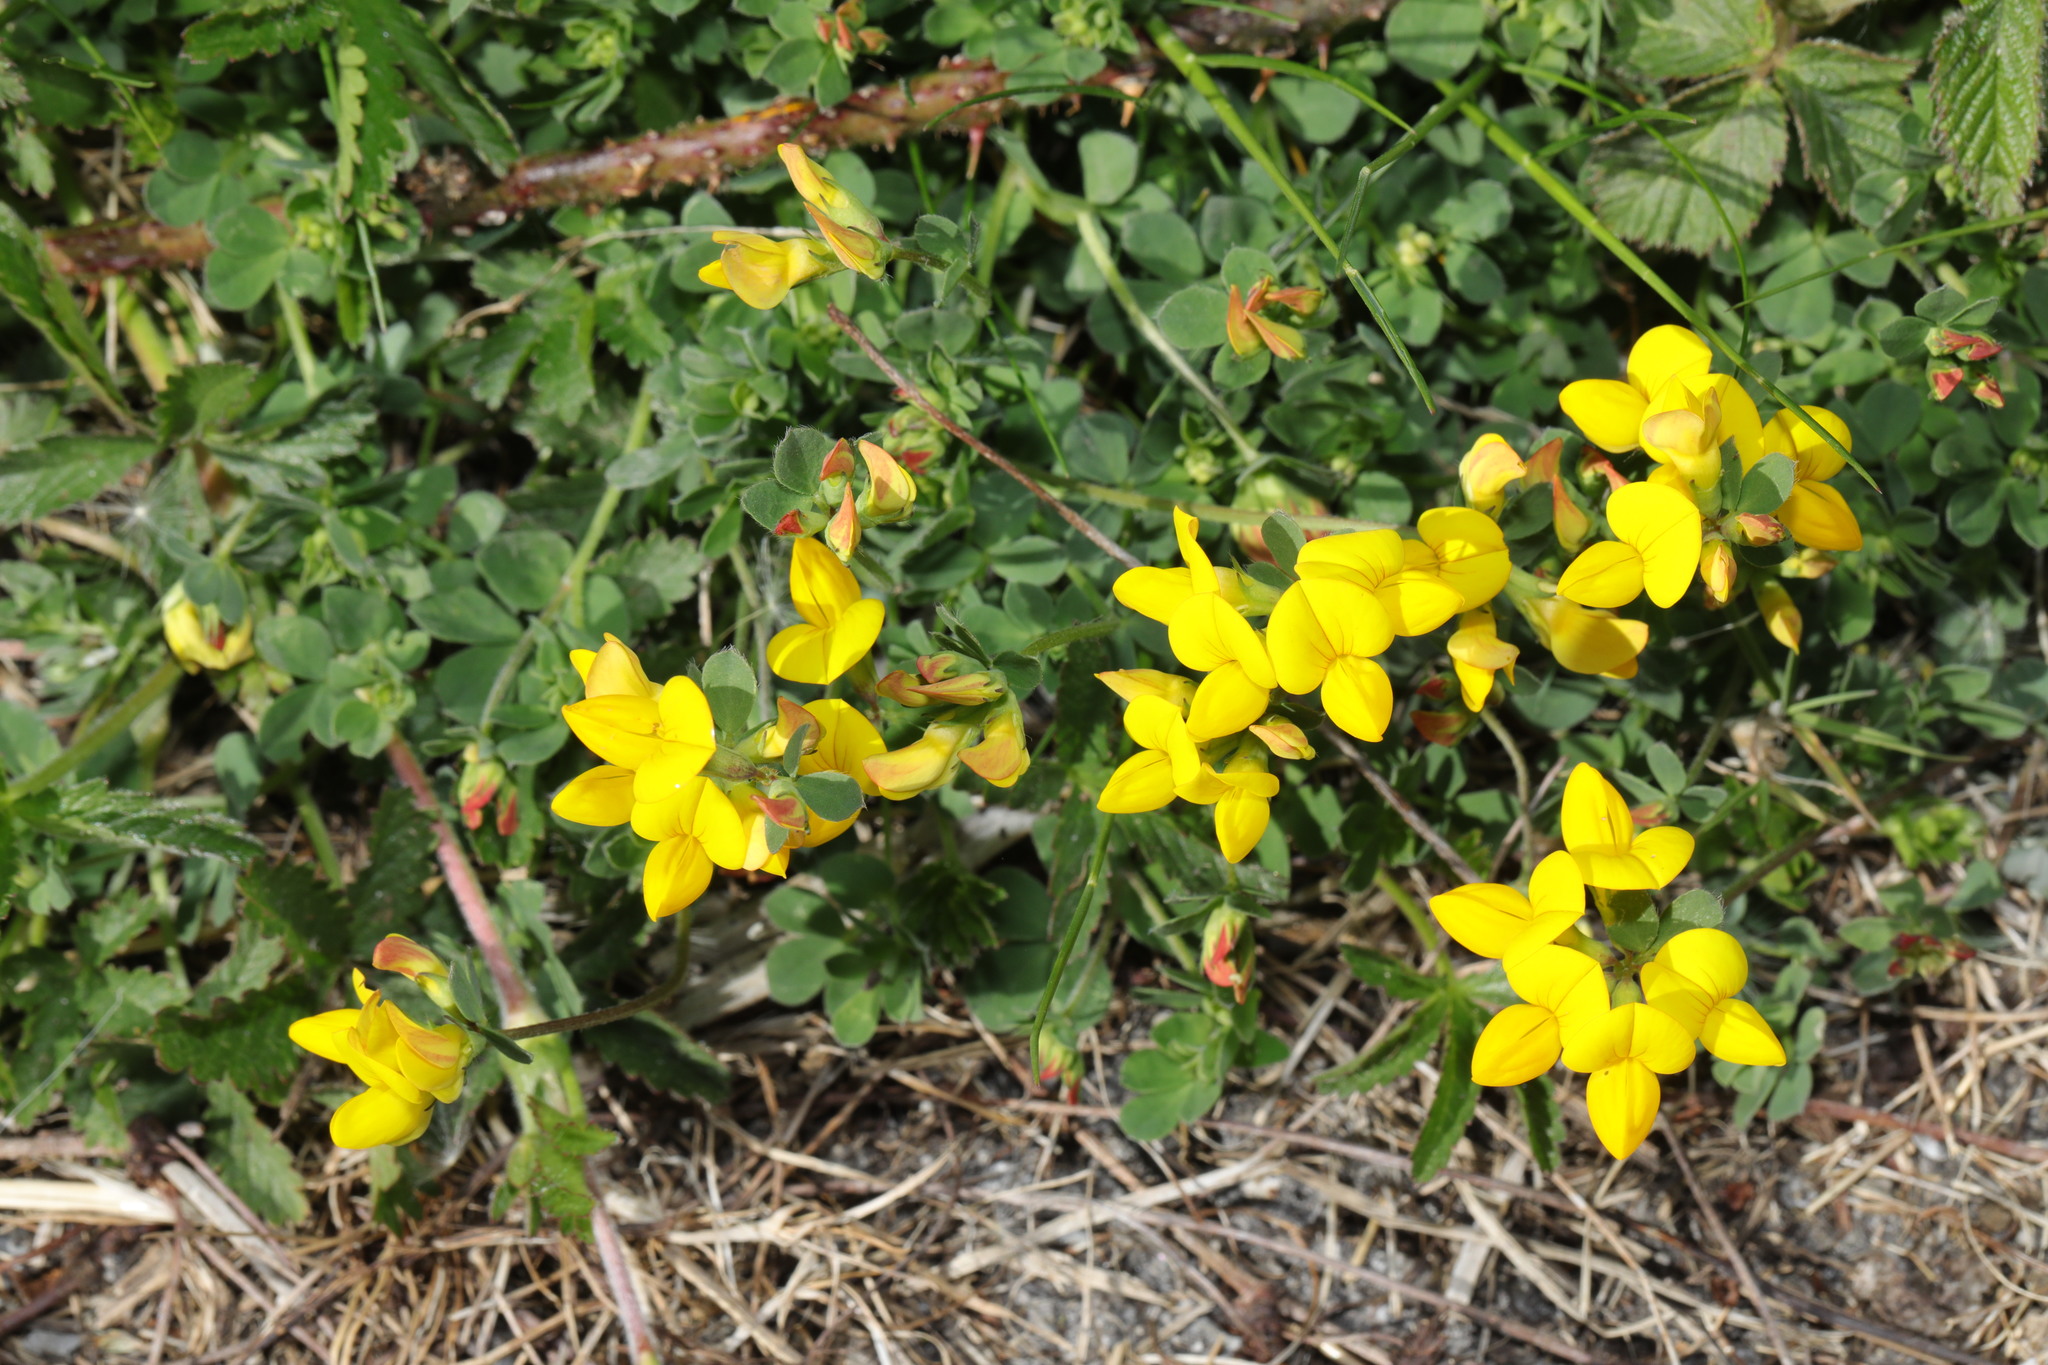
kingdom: Plantae
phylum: Tracheophyta
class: Magnoliopsida
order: Fabales
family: Fabaceae
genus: Lotus
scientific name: Lotus corniculatus
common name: Common bird's-foot-trefoil
